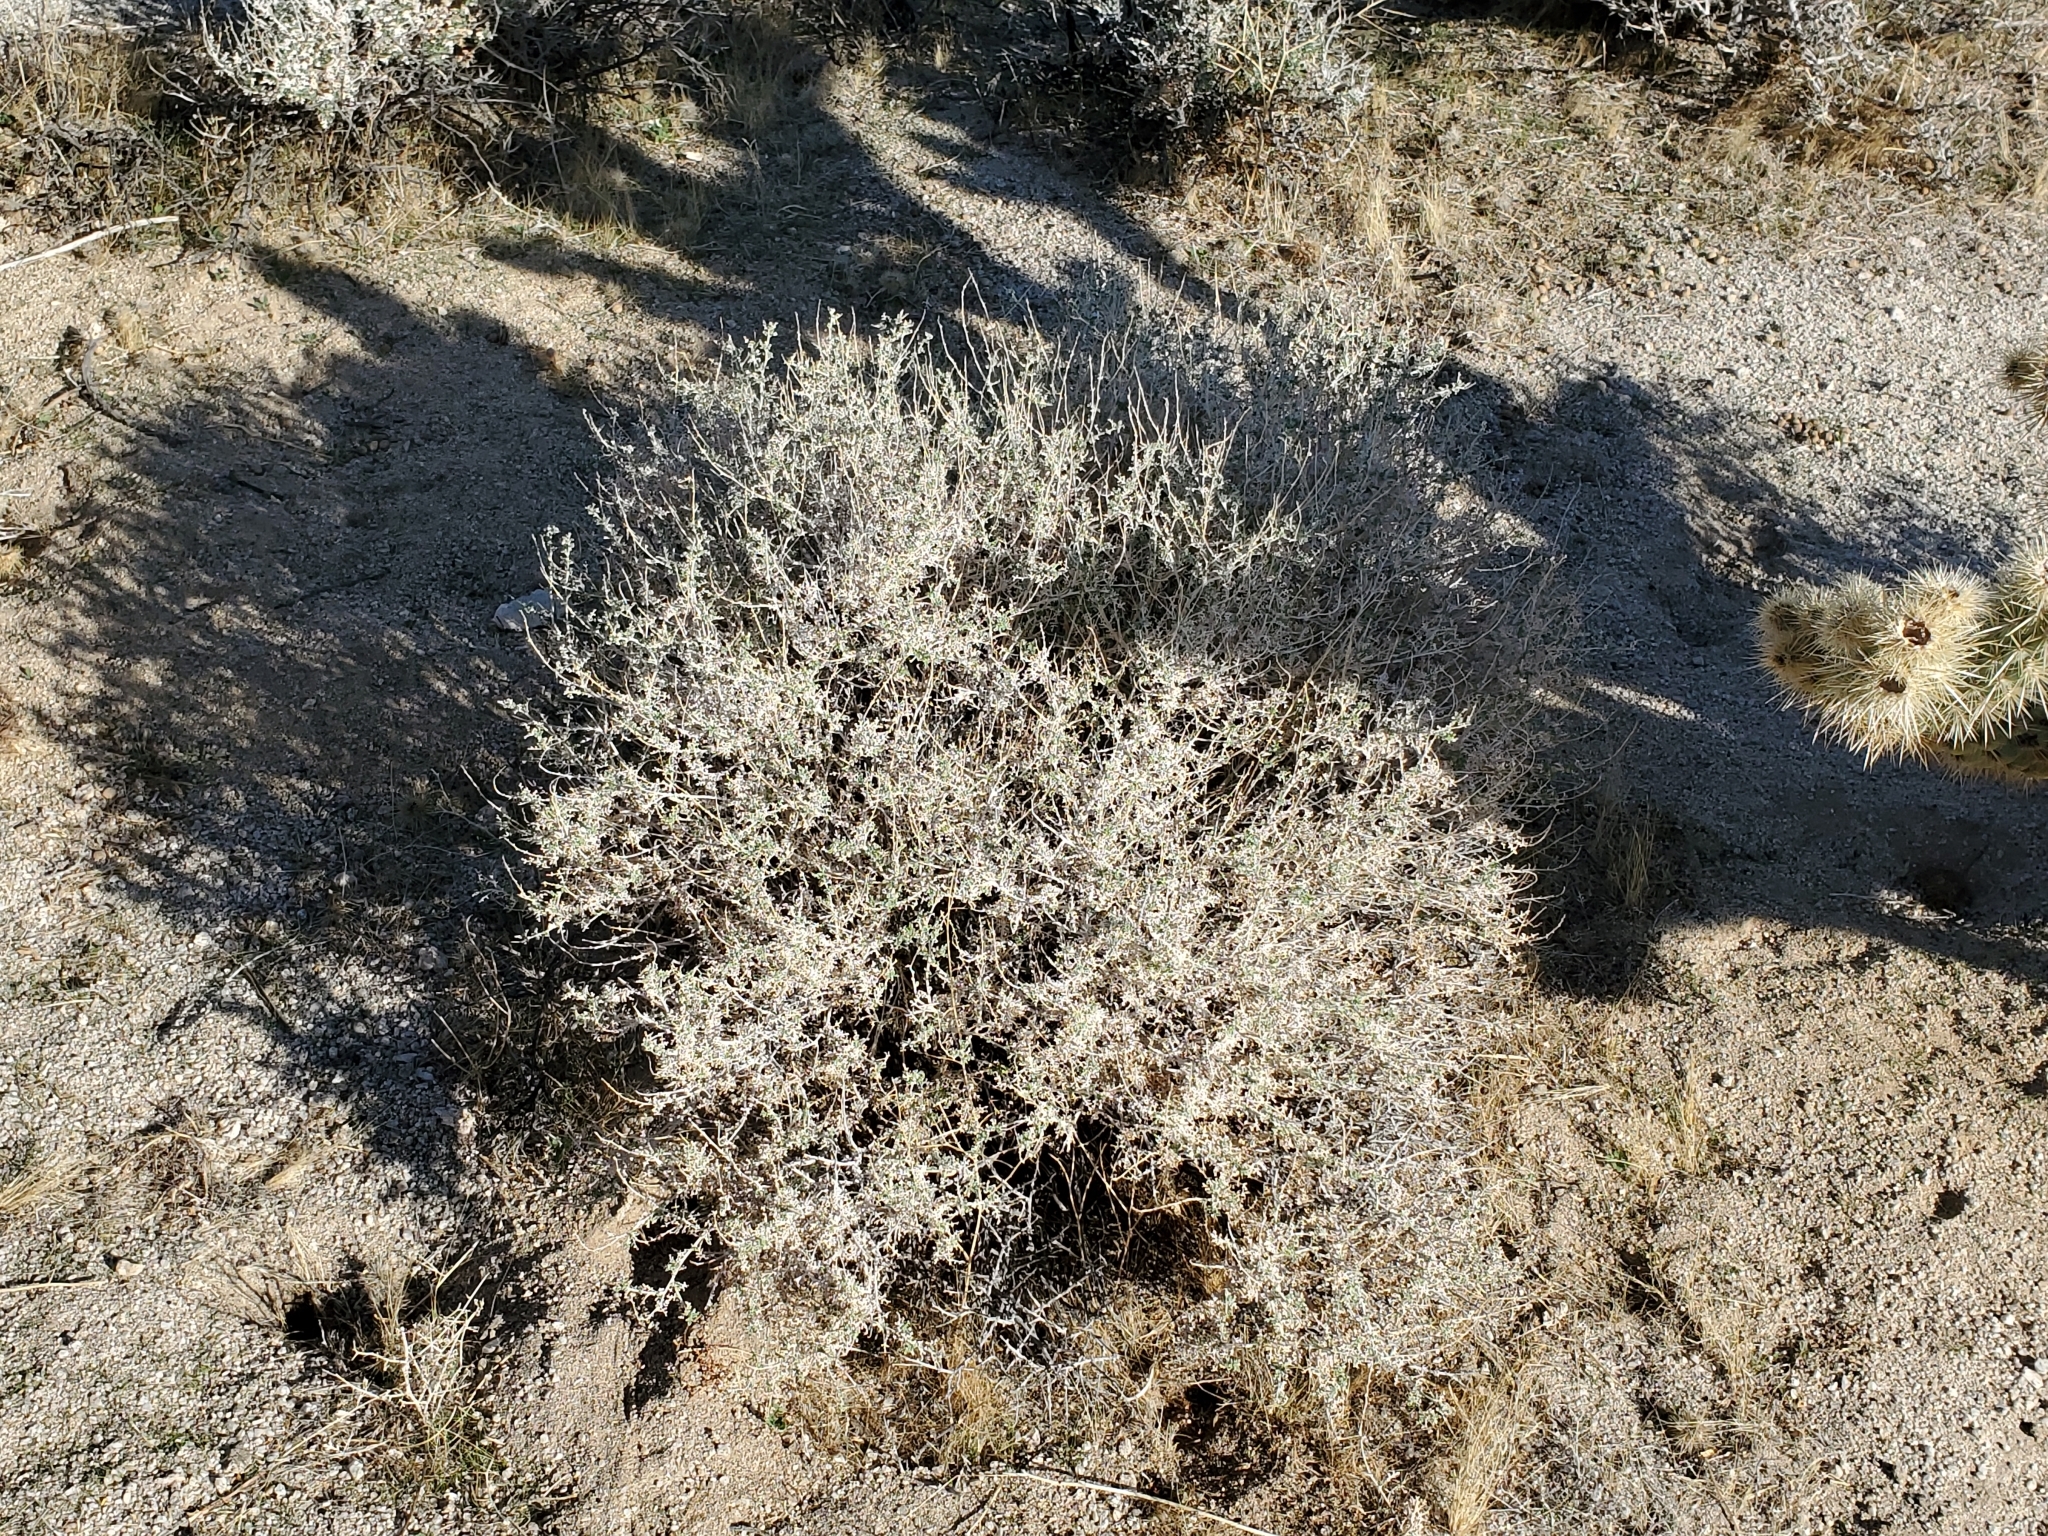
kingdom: Plantae
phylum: Tracheophyta
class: Magnoliopsida
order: Asterales
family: Asteraceae
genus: Ambrosia
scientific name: Ambrosia dumosa
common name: Bur-sage
